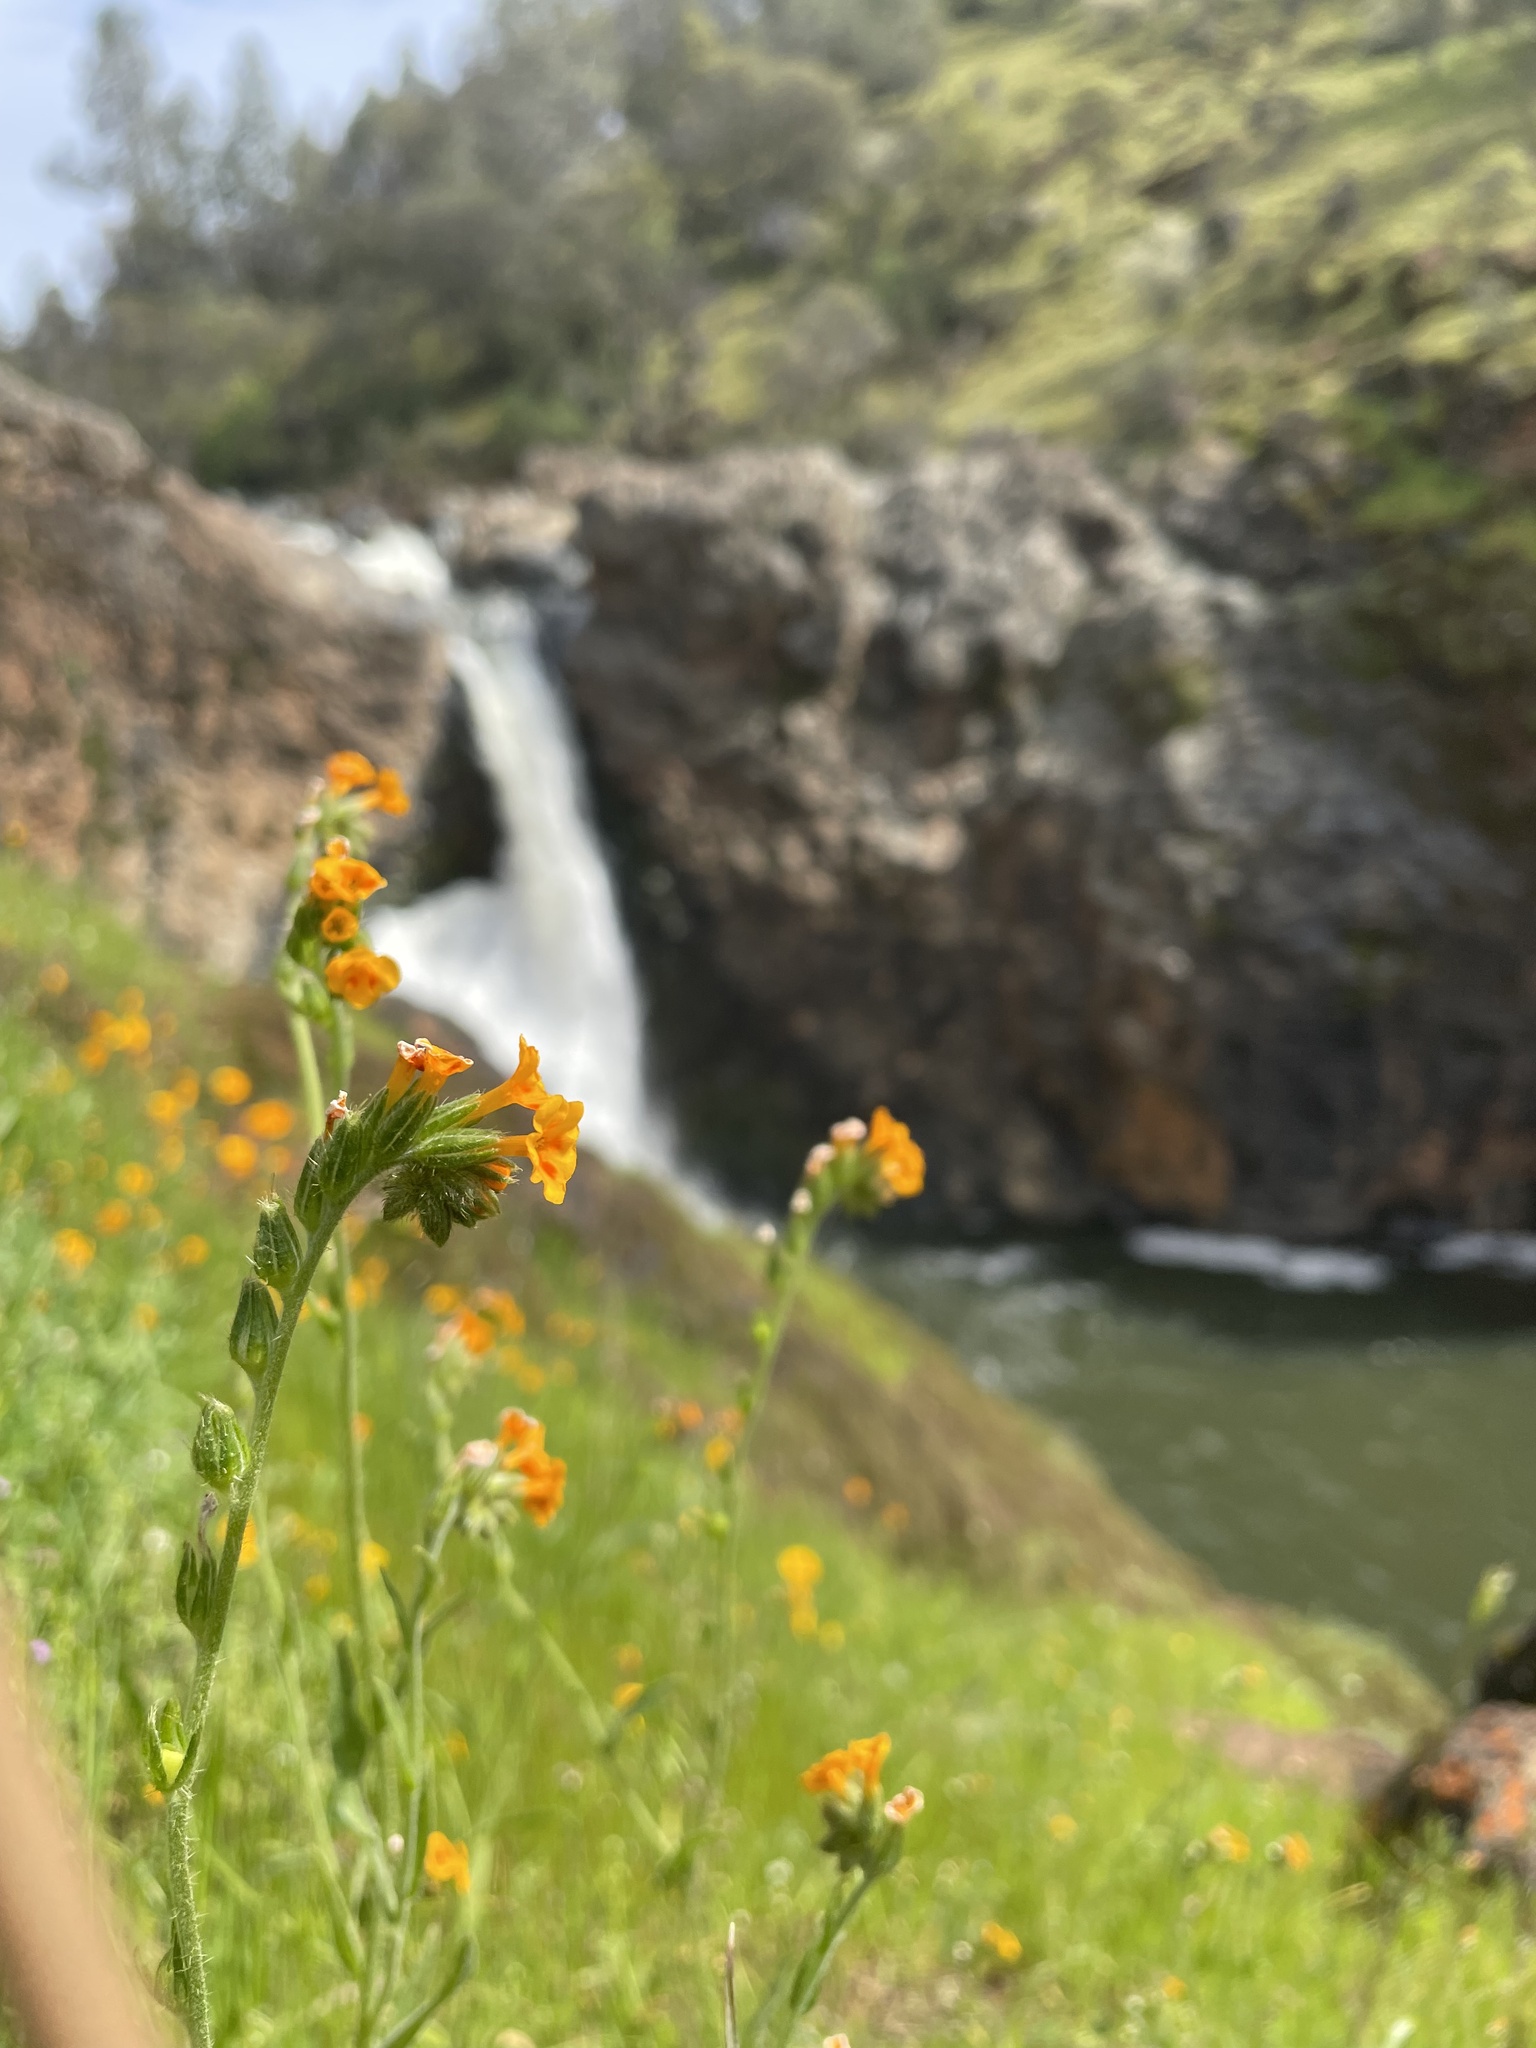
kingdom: Plantae
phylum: Tracheophyta
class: Magnoliopsida
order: Boraginales
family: Boraginaceae
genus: Amsinckia
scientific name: Amsinckia menziesii
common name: Menzies' fiddleneck
